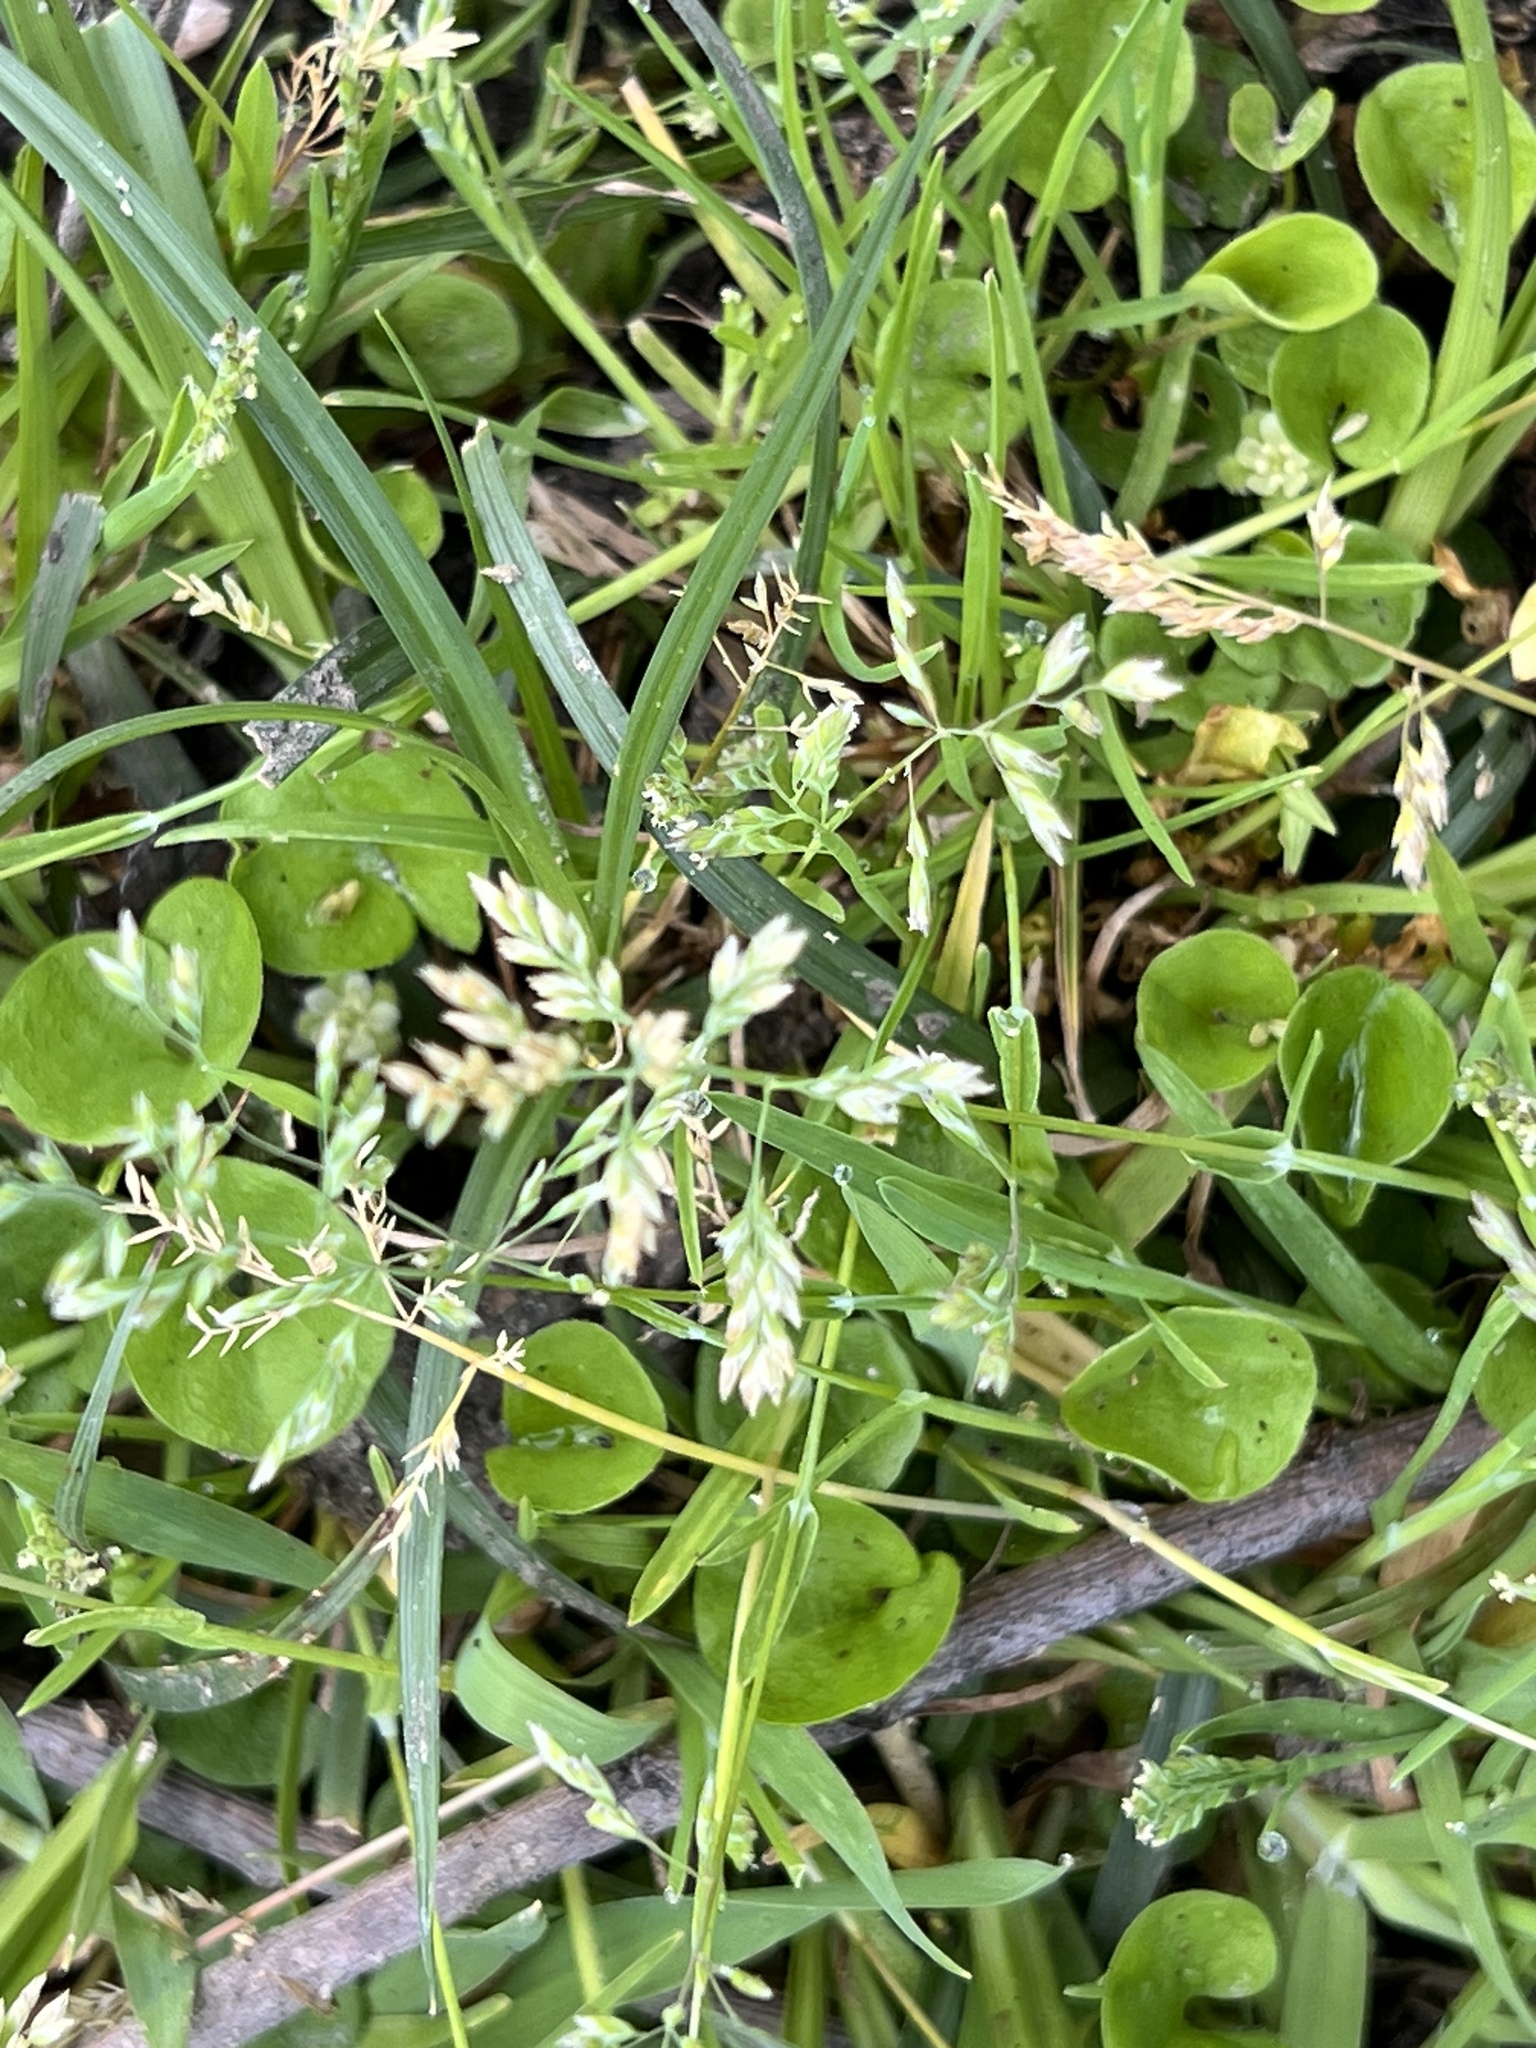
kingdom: Plantae
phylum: Tracheophyta
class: Liliopsida
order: Poales
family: Poaceae
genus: Poa
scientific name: Poa annua
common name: Annual bluegrass
